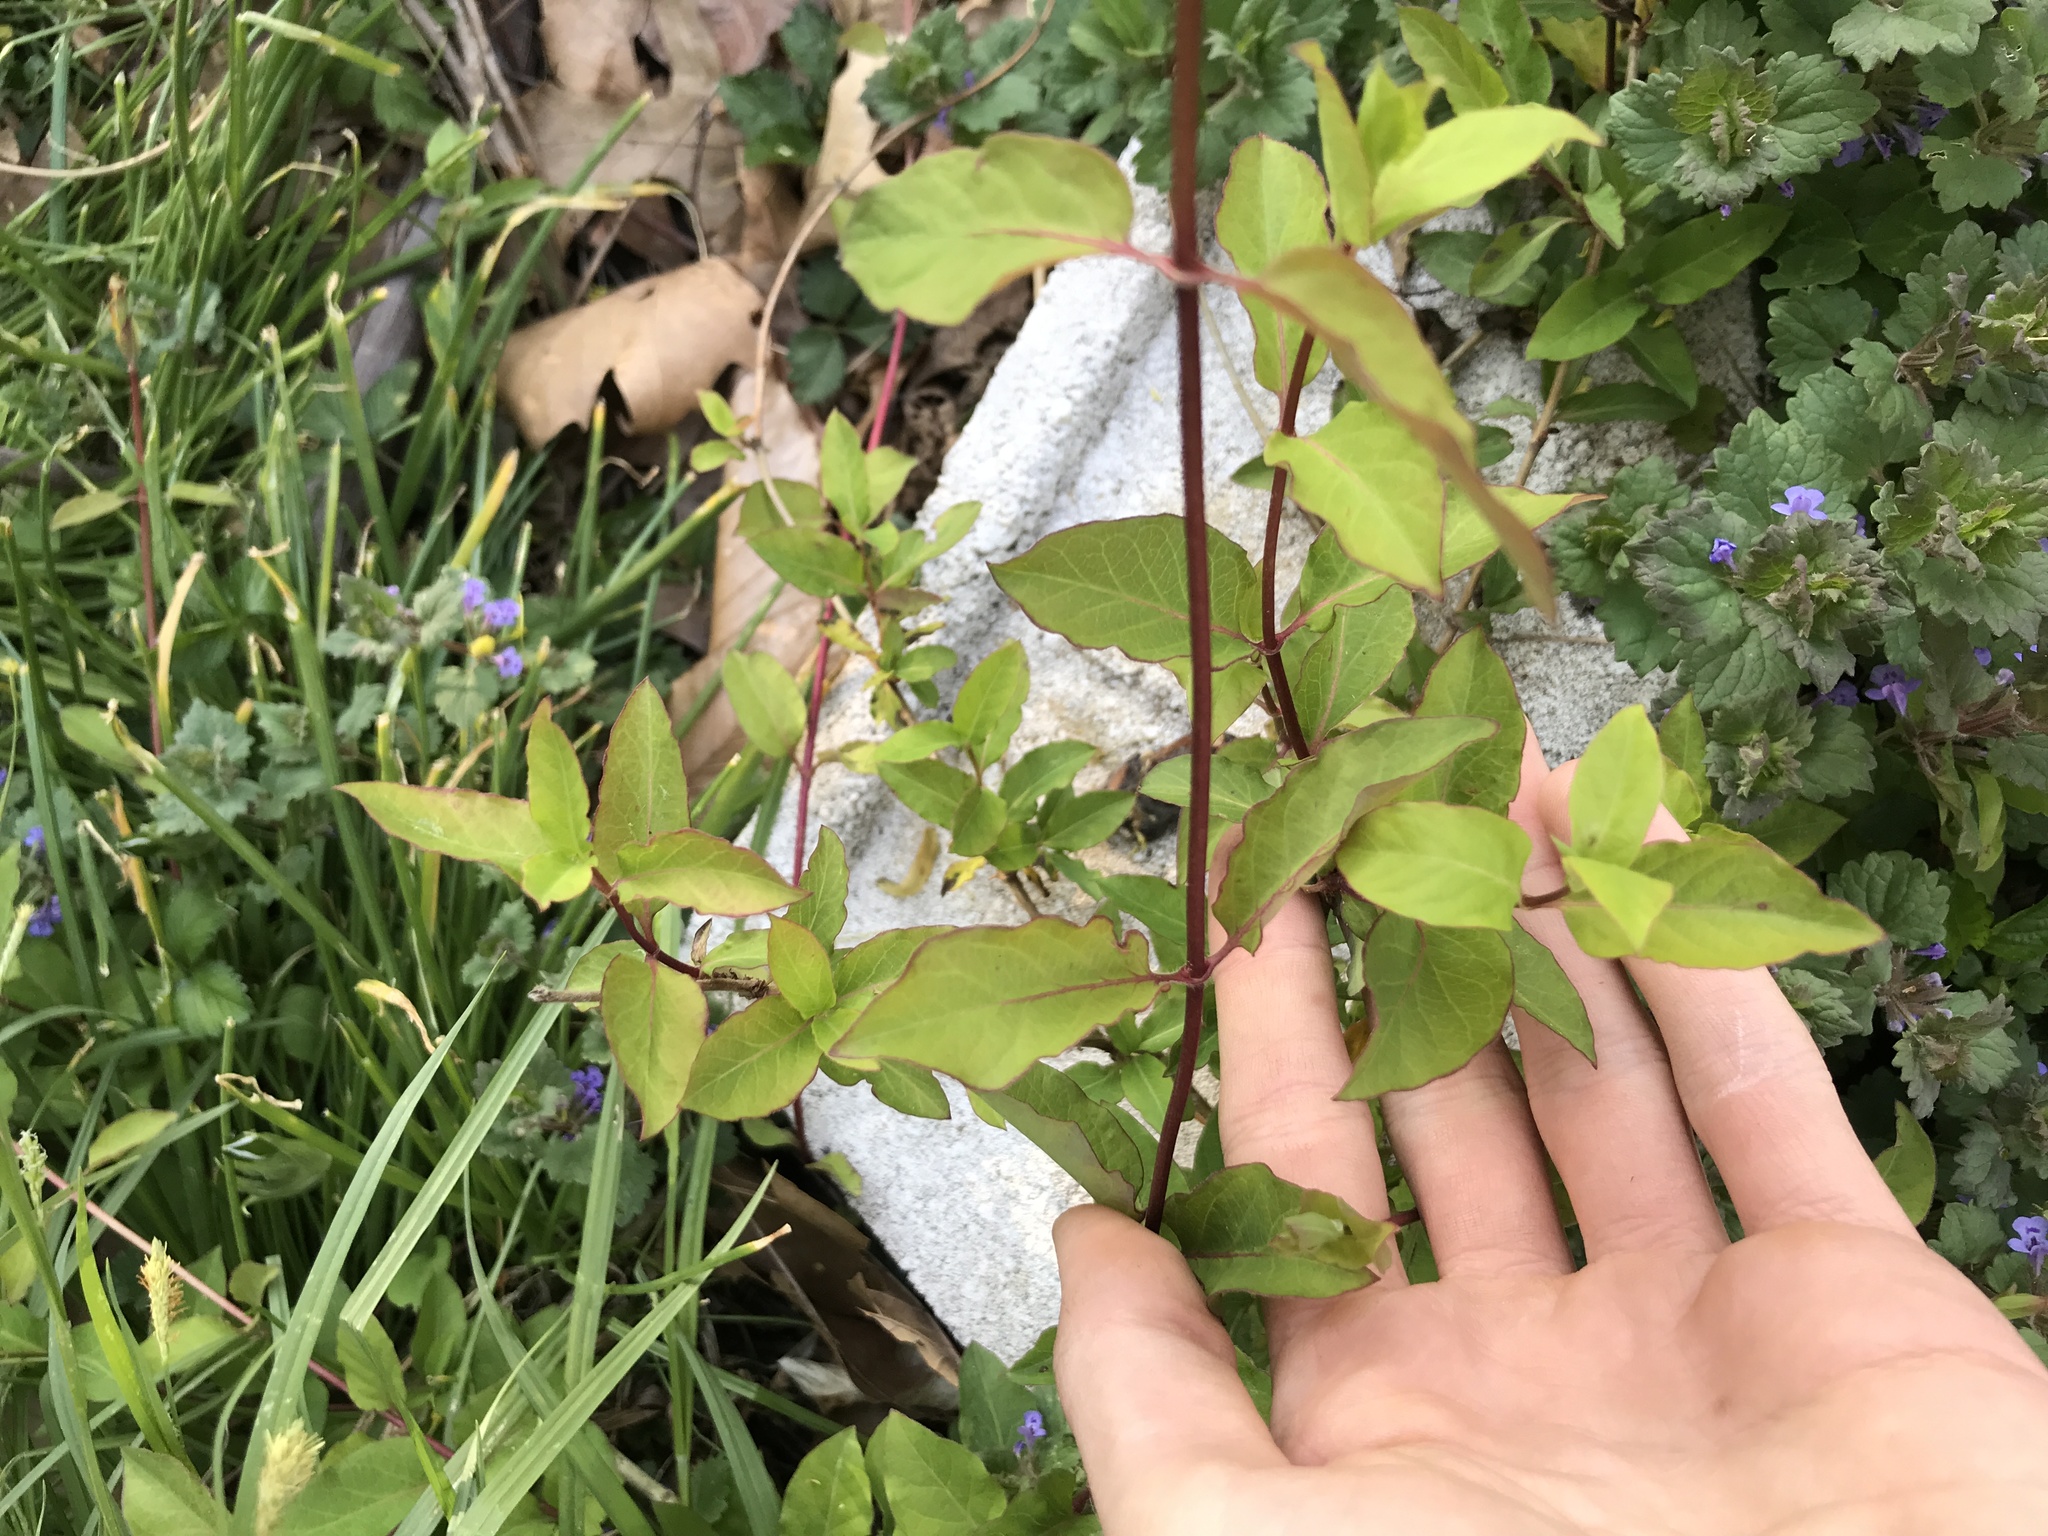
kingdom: Plantae
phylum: Tracheophyta
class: Magnoliopsida
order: Dipsacales
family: Caprifoliaceae
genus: Lonicera
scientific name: Lonicera japonica
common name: Japanese honeysuckle
